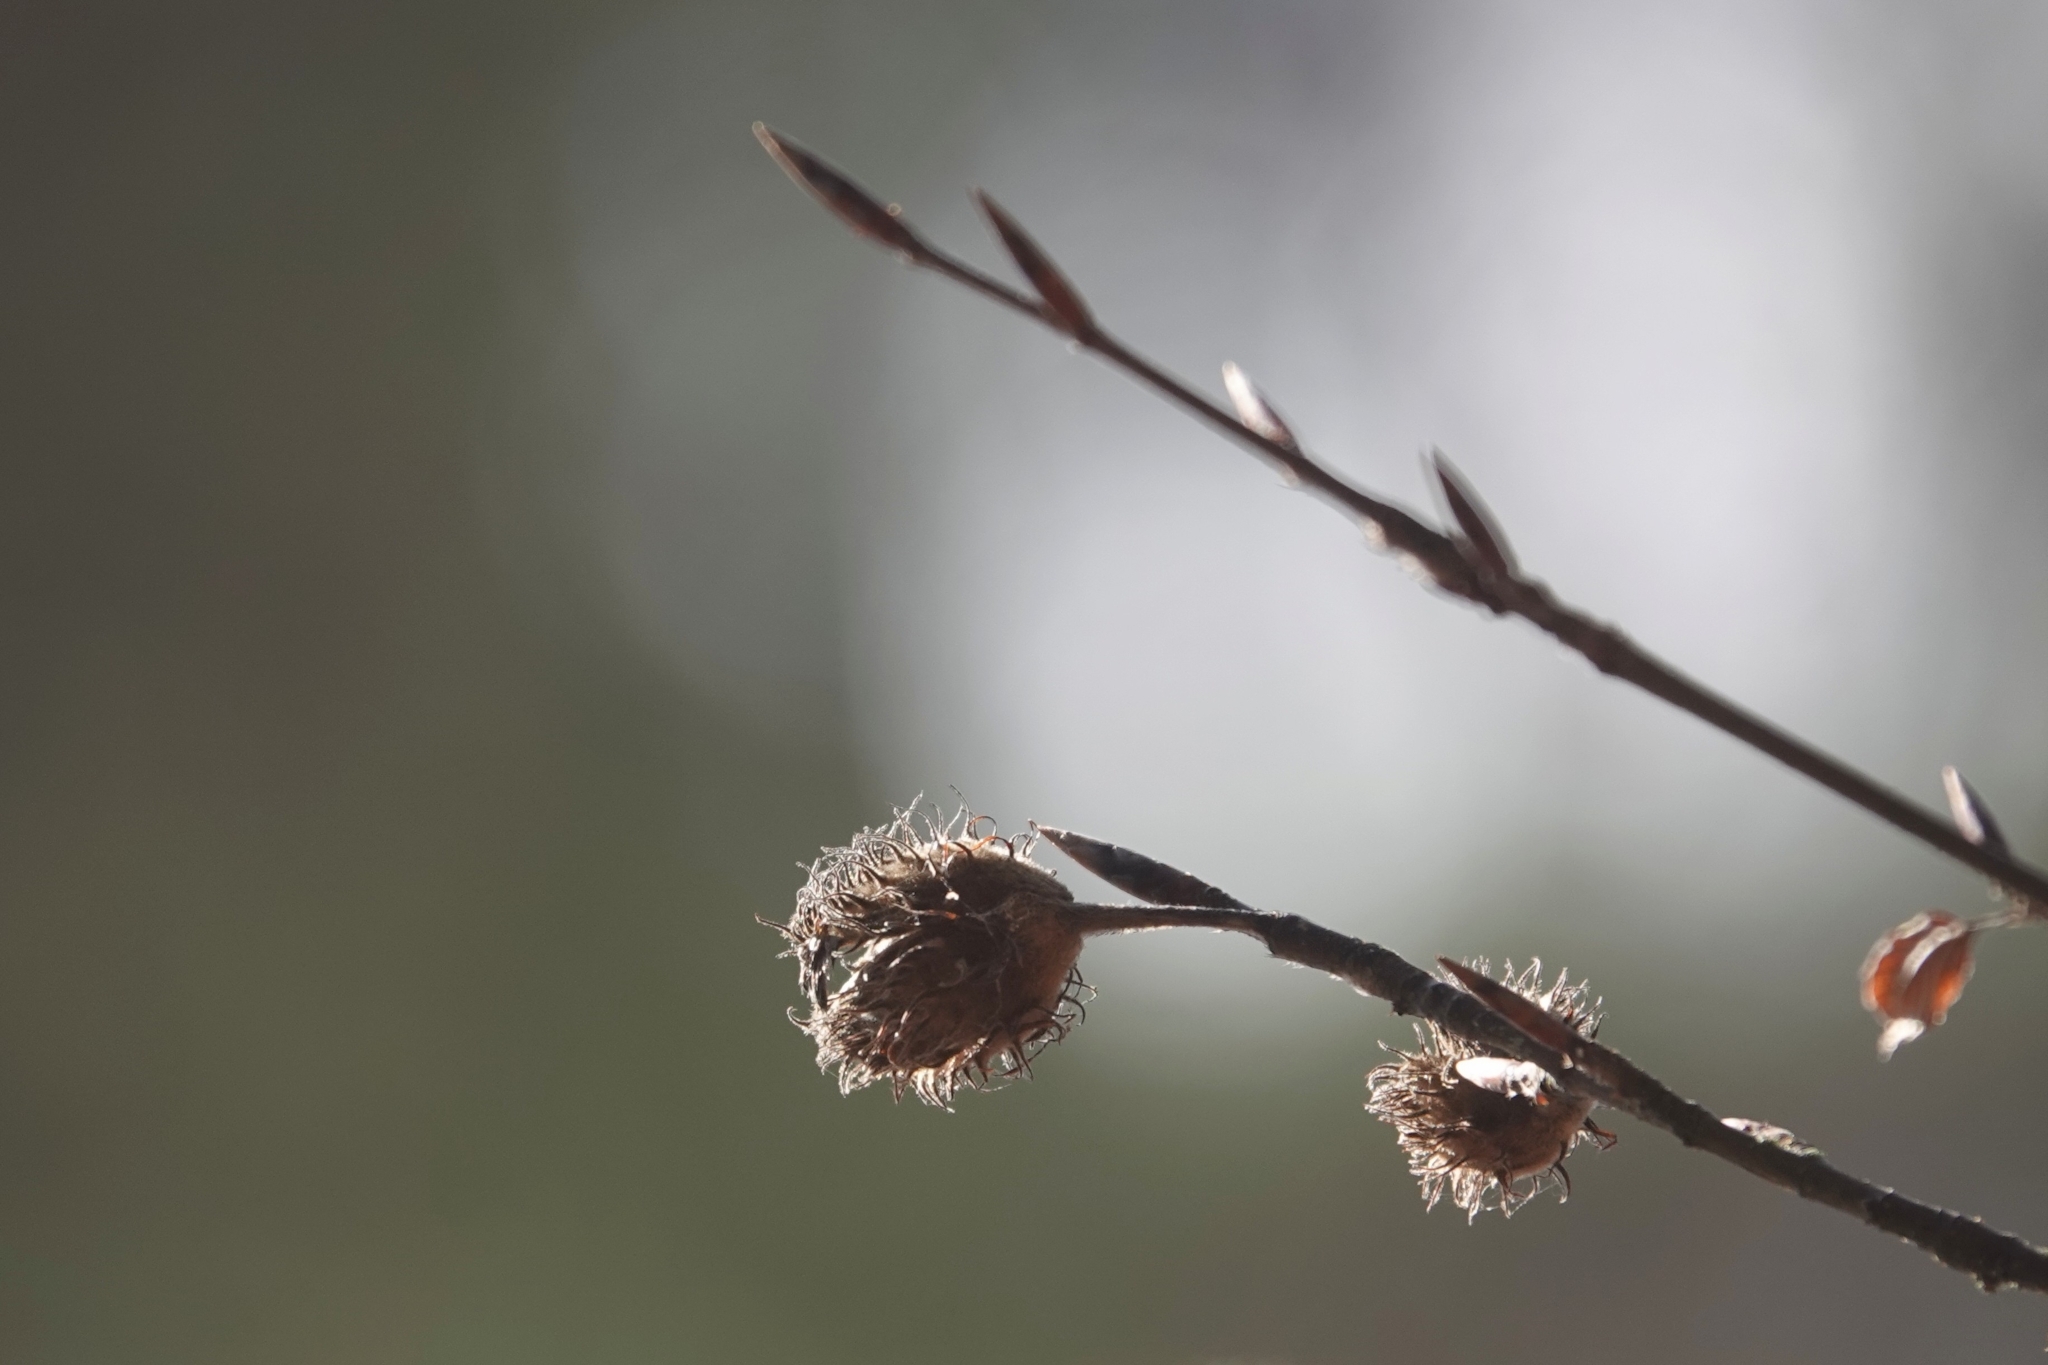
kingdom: Plantae
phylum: Tracheophyta
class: Magnoliopsida
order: Fagales
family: Fagaceae
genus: Fagus
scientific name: Fagus sylvatica
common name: Beech
